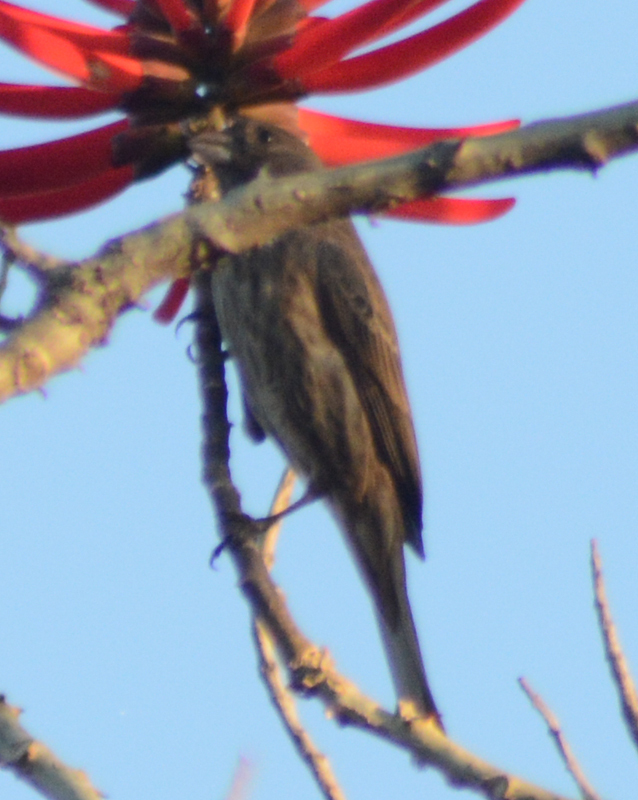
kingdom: Animalia
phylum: Chordata
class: Aves
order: Passeriformes
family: Fringillidae
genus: Haemorhous
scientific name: Haemorhous mexicanus
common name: House finch
